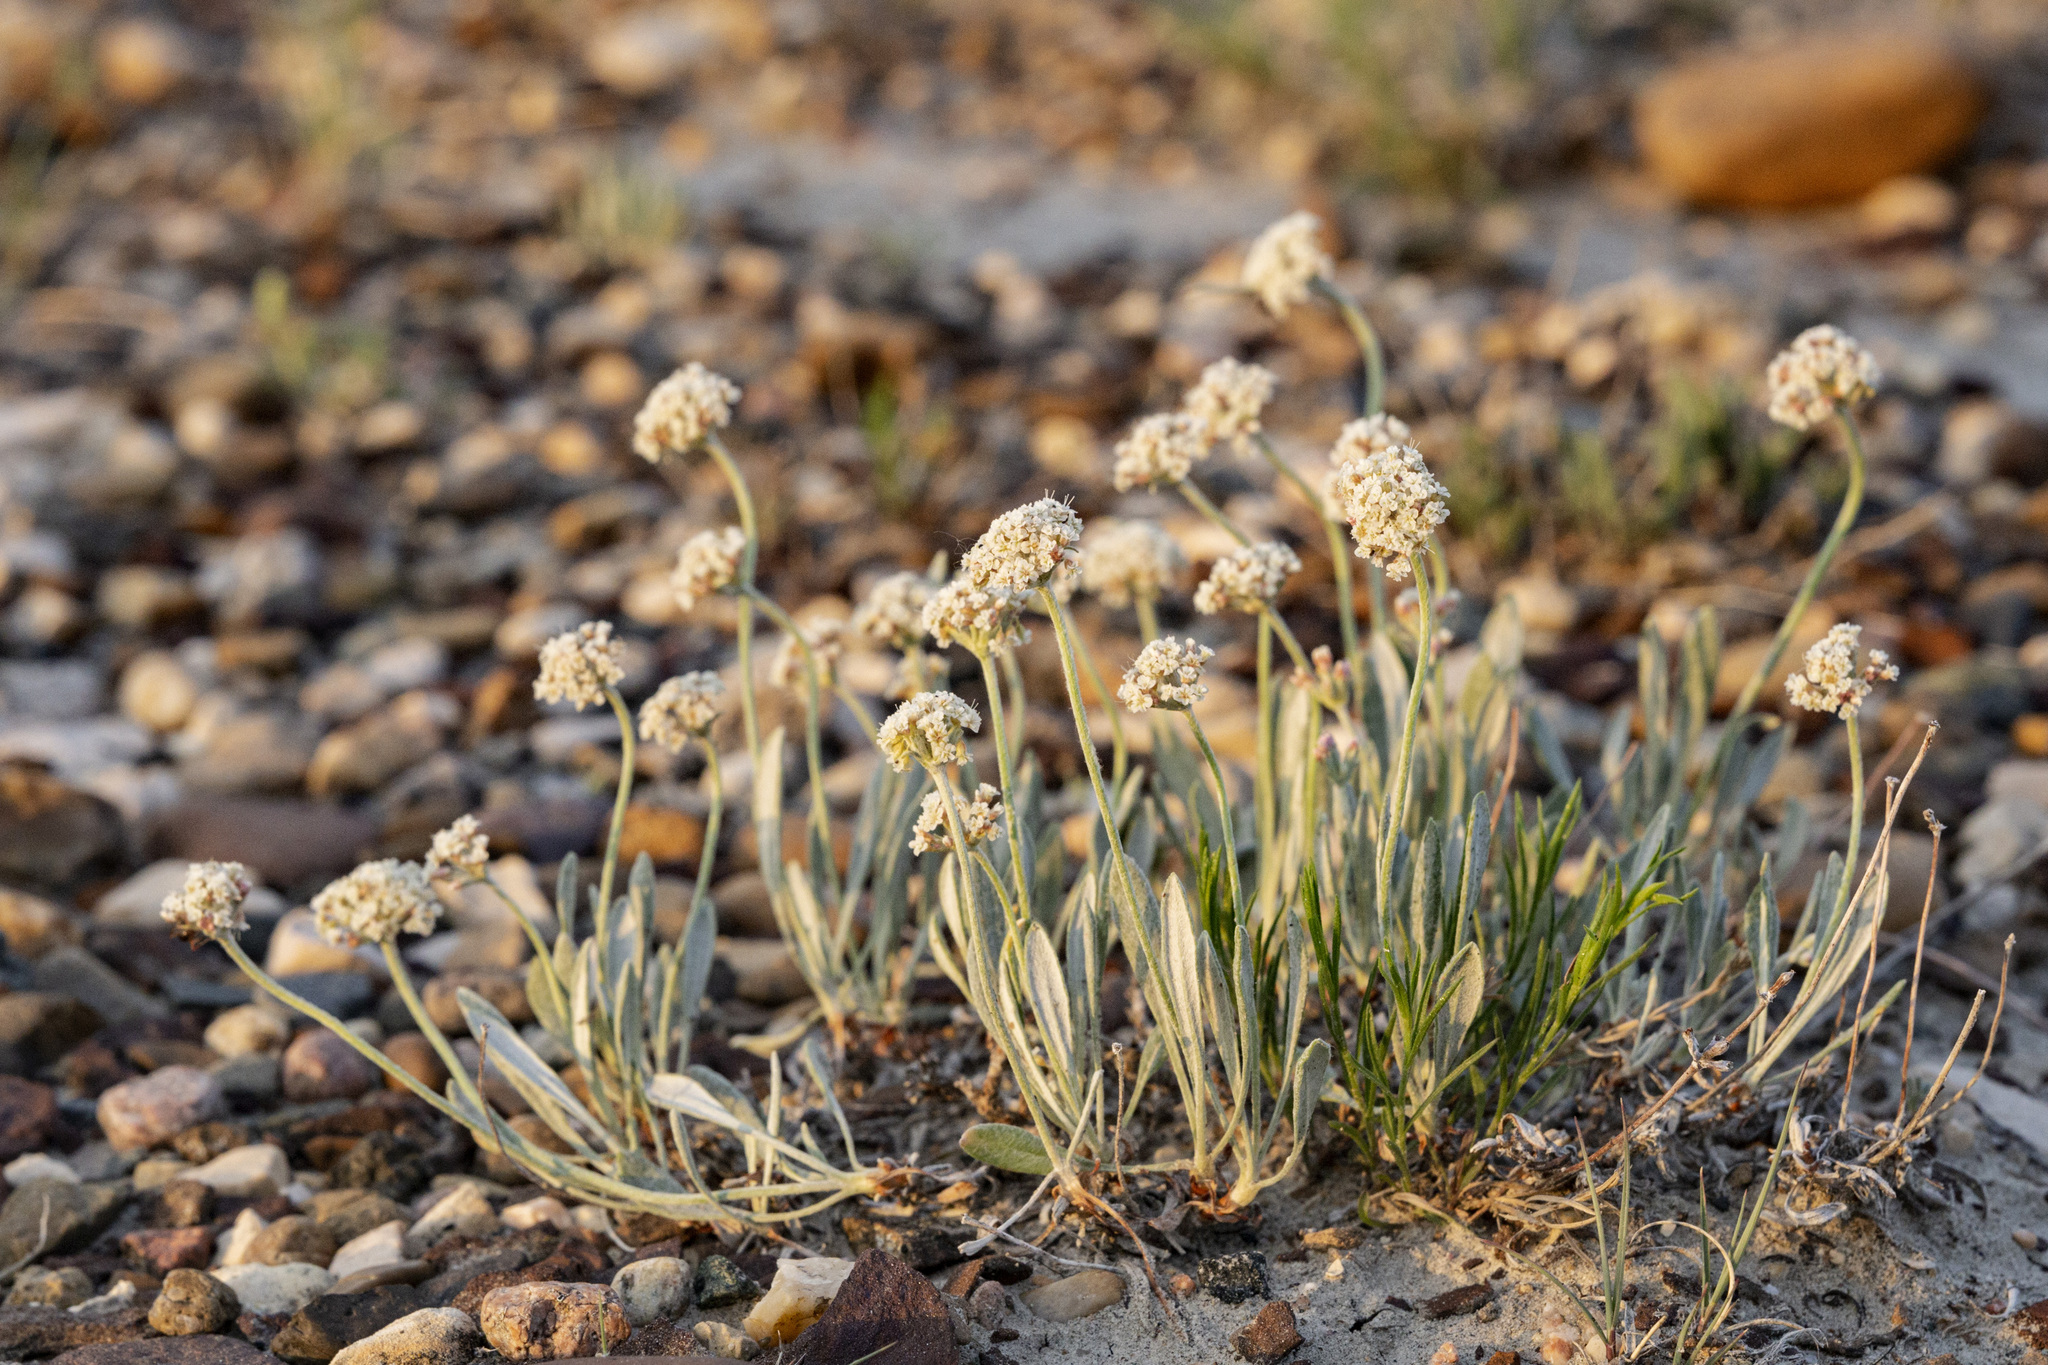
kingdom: Plantae
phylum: Tracheophyta
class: Magnoliopsida
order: Caryophyllales
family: Polygonaceae
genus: Eriogonum
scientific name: Eriogonum pauciflorum
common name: Few-flower wild buckwheat
